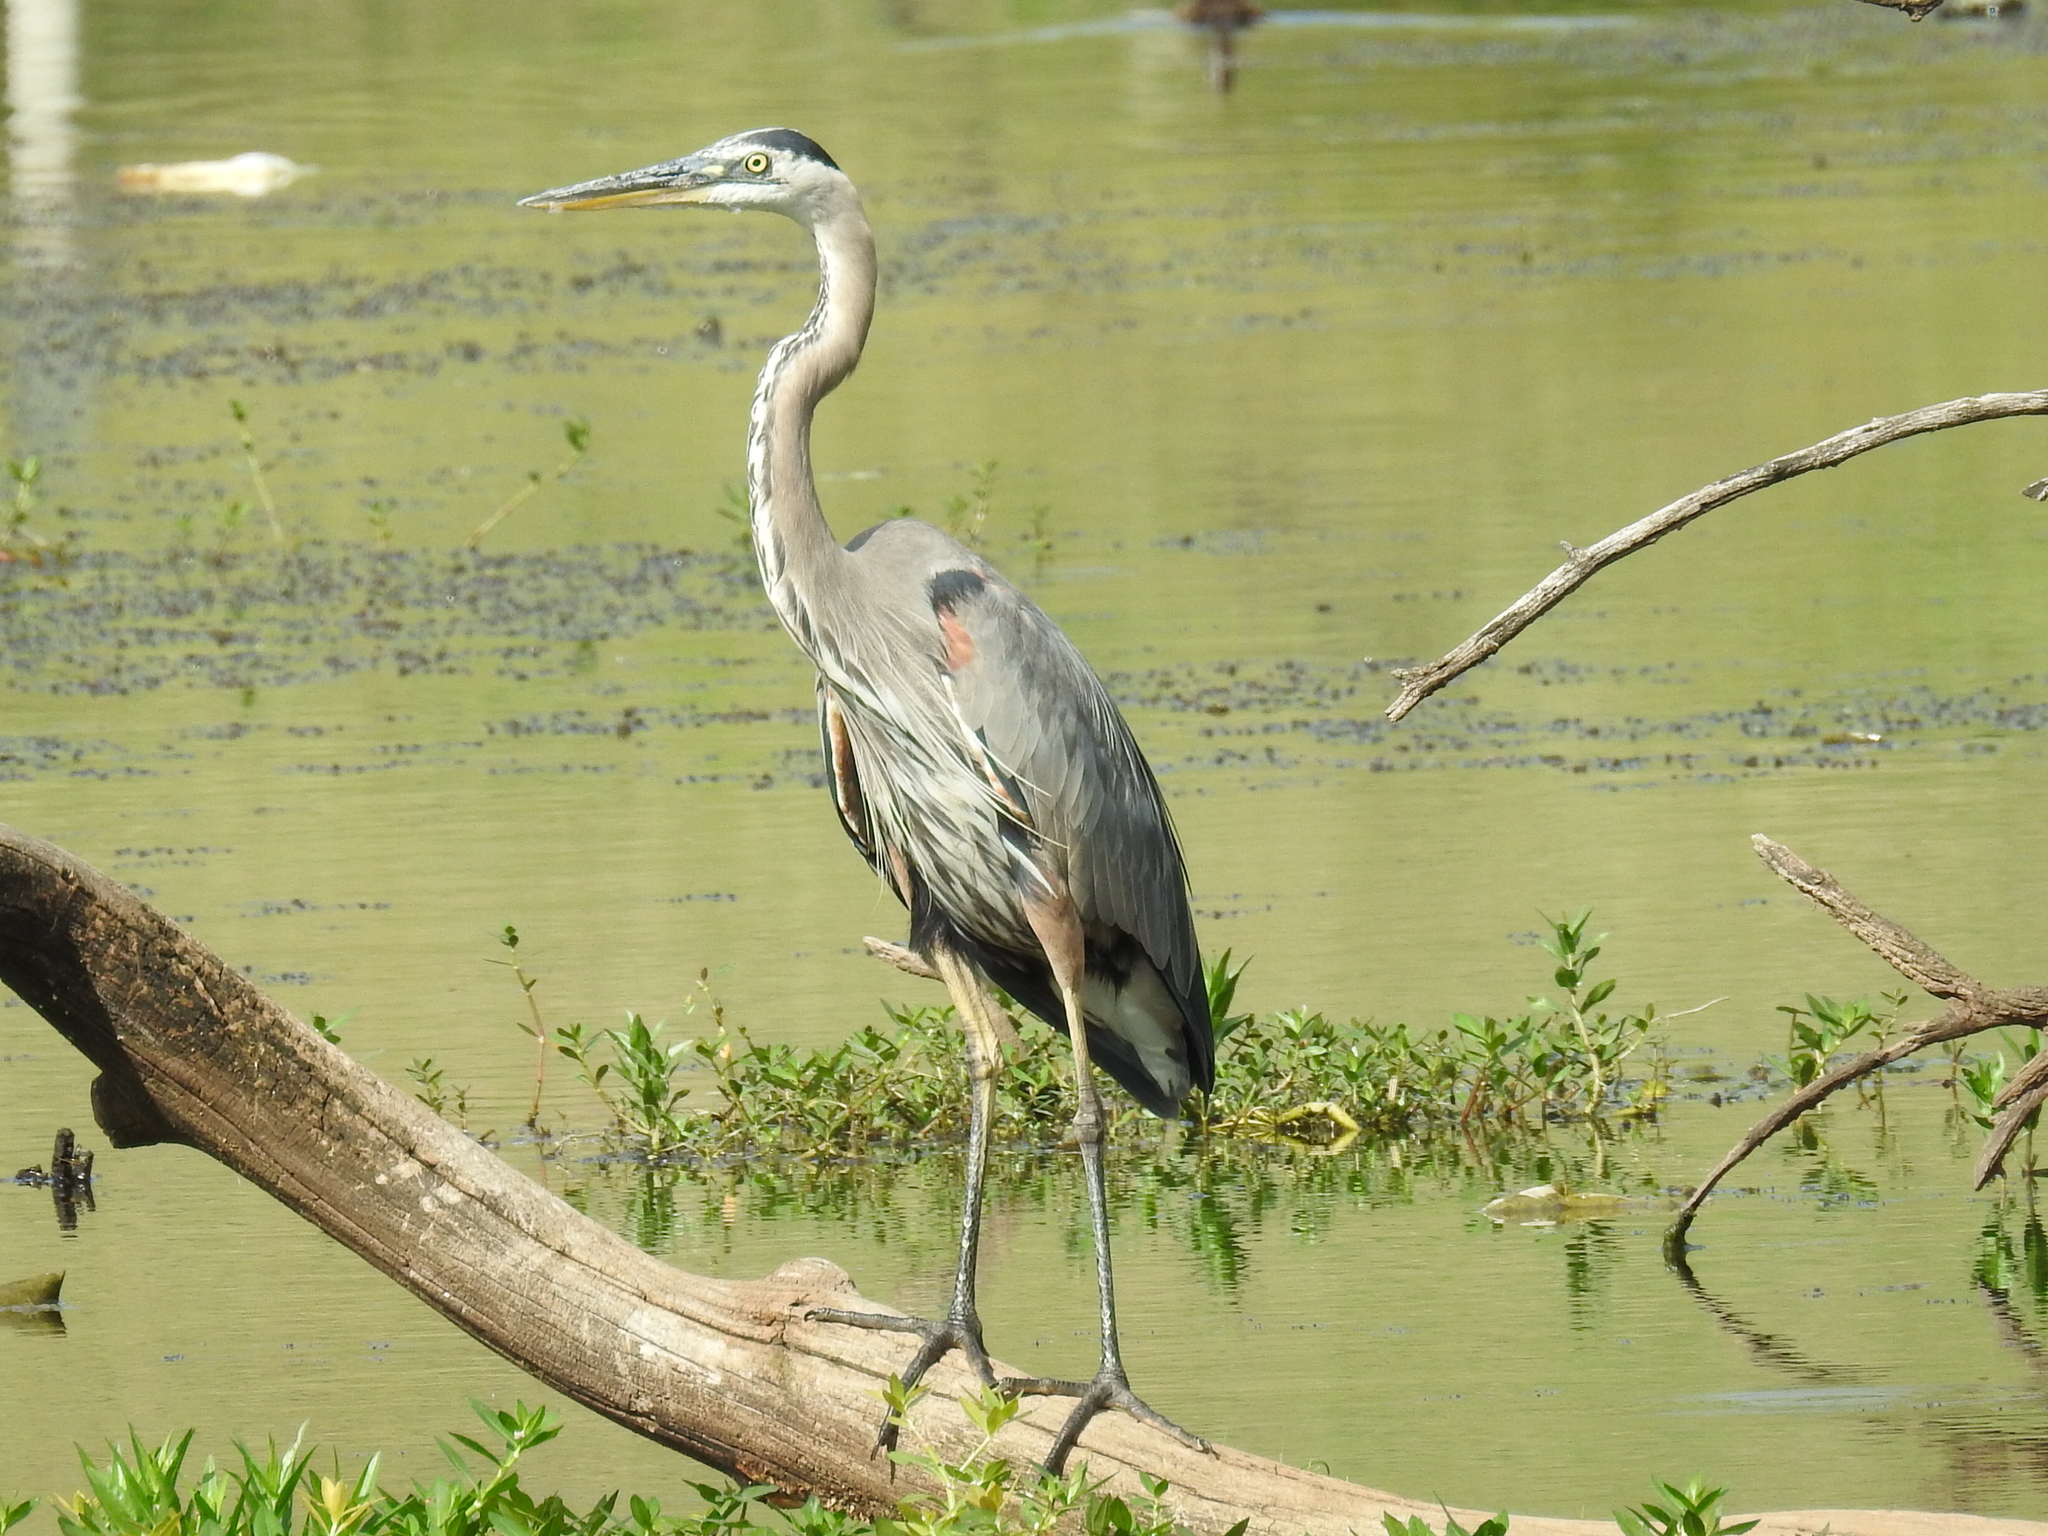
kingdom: Animalia
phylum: Chordata
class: Aves
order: Pelecaniformes
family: Ardeidae
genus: Ardea
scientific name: Ardea herodias
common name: Great blue heron
